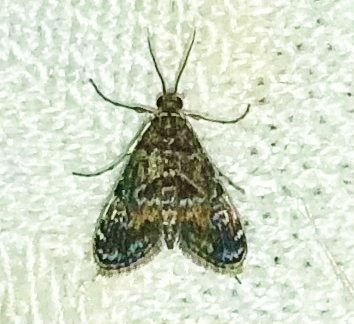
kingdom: Animalia
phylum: Arthropoda
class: Insecta
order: Lepidoptera
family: Crambidae
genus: Elophila
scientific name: Elophila obliteralis
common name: Waterlily leafcutter moth
